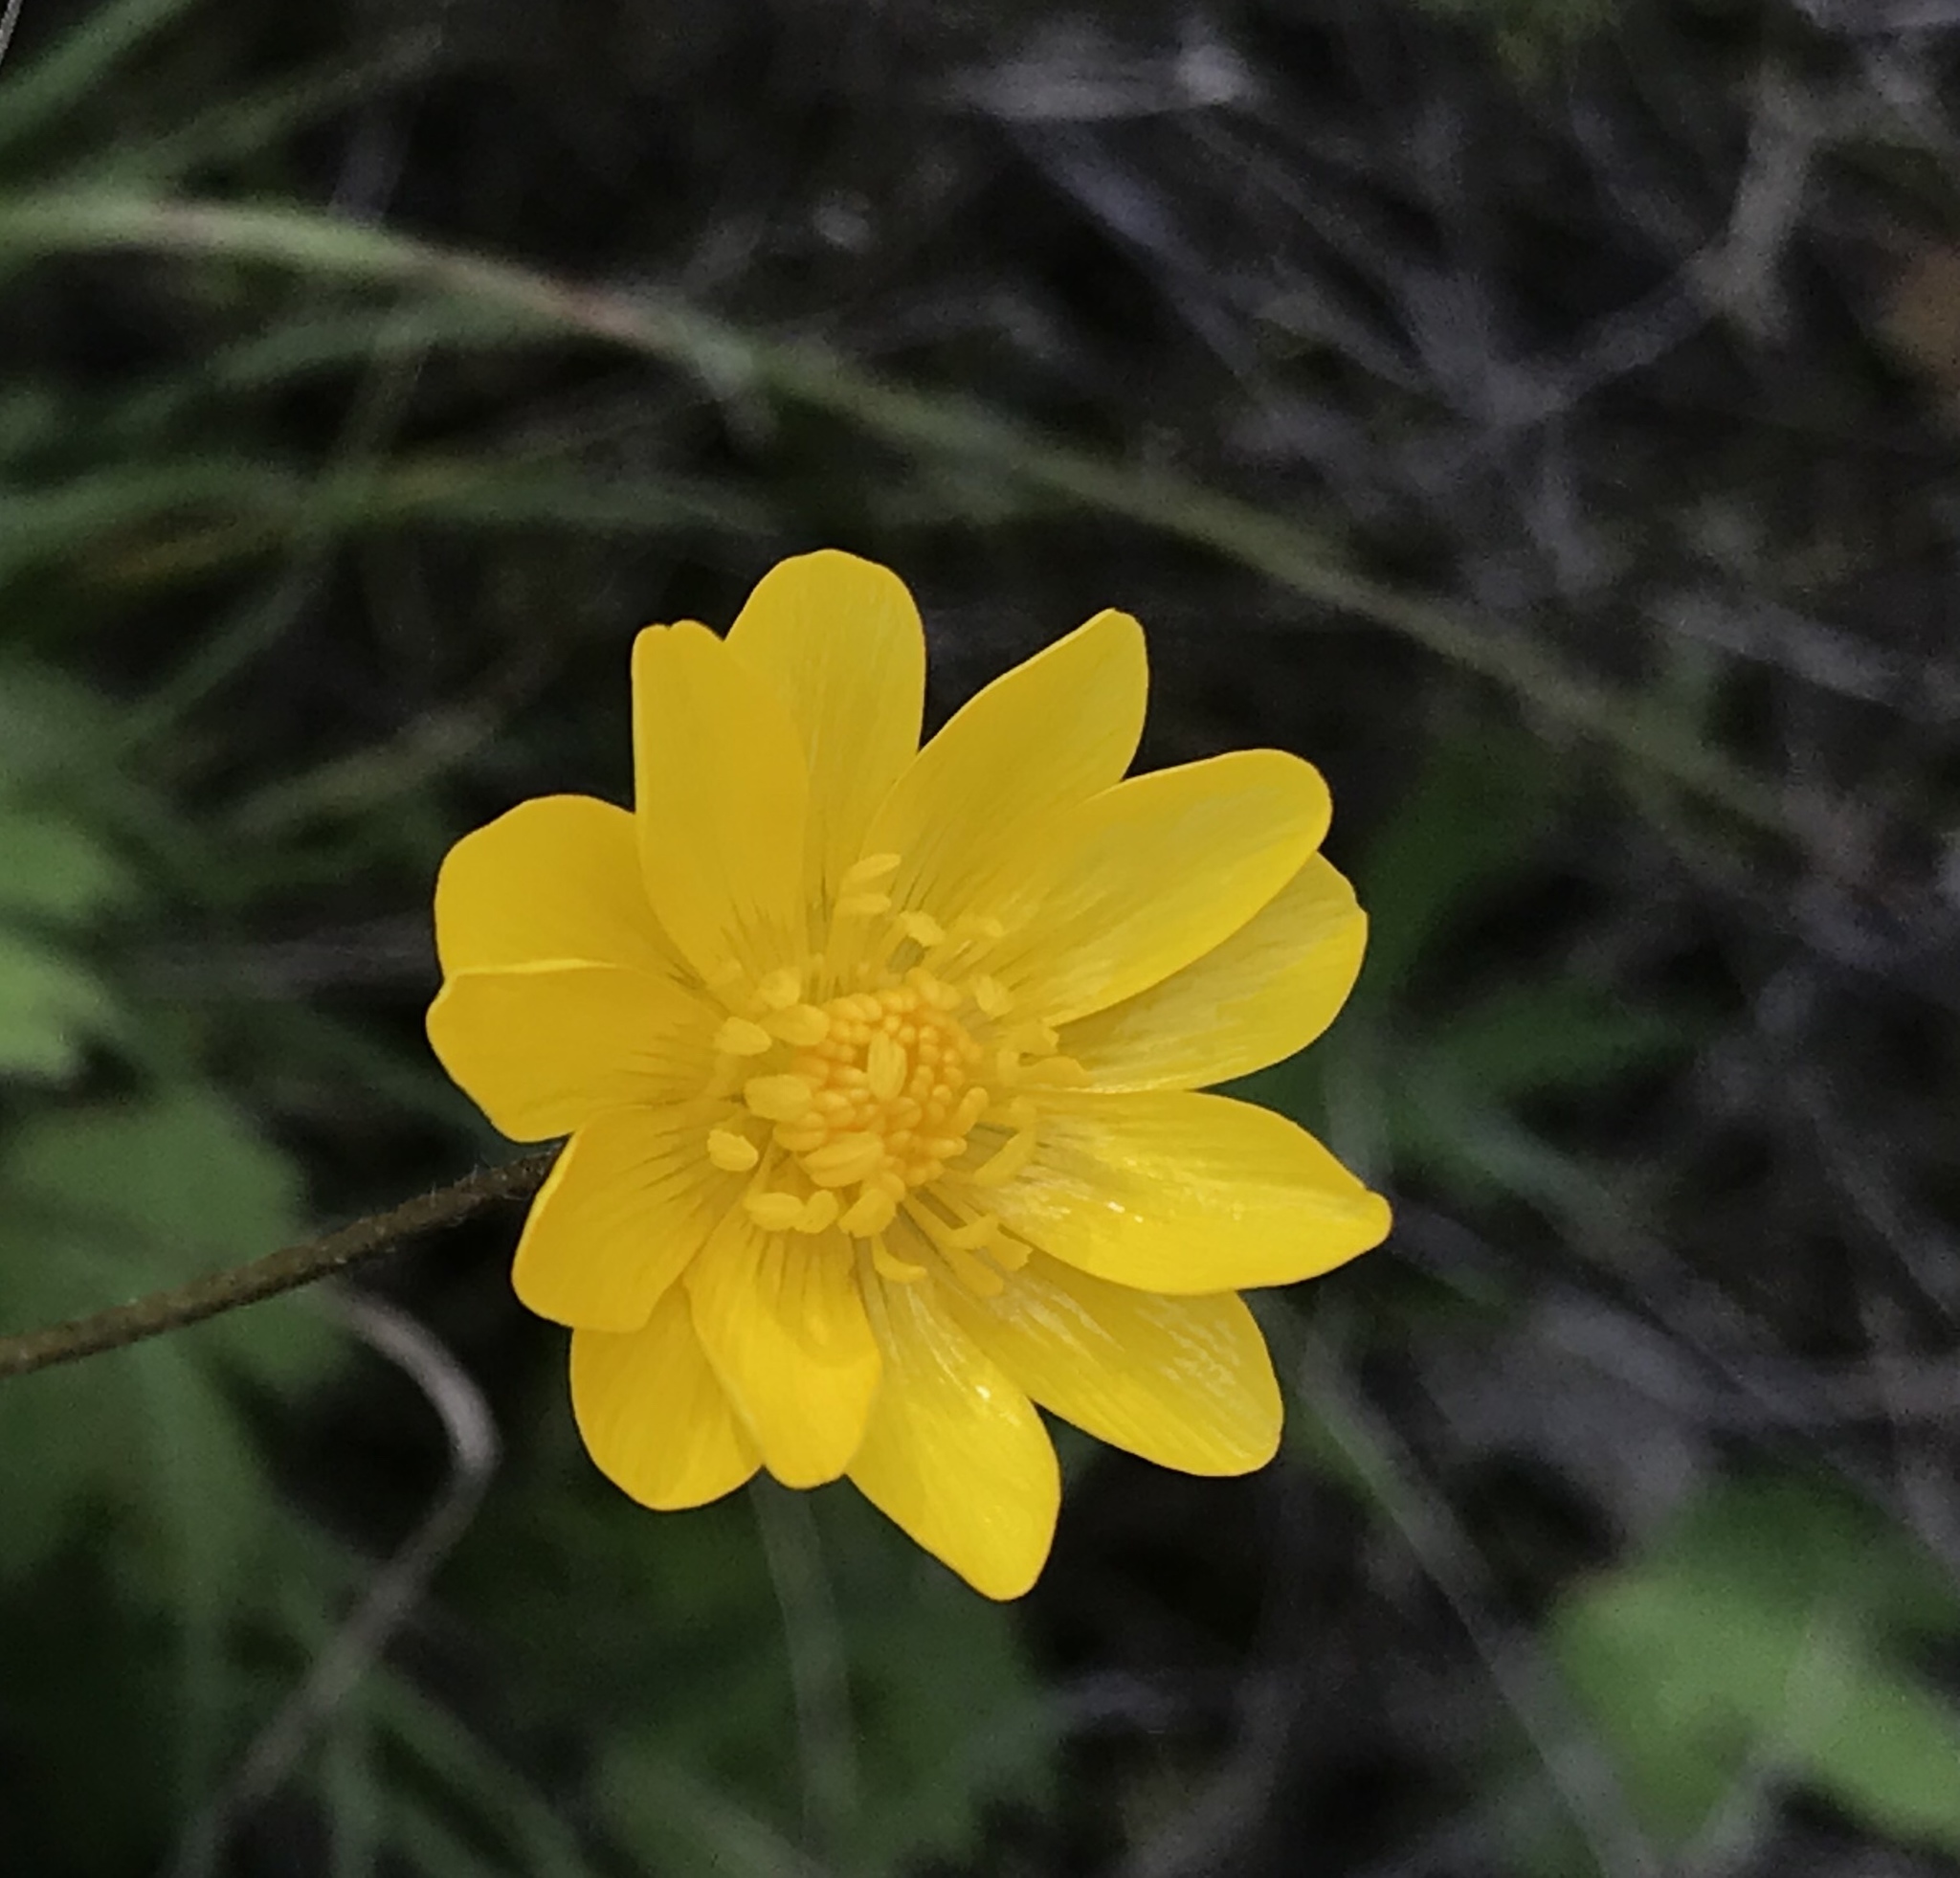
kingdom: Plantae
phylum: Tracheophyta
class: Magnoliopsida
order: Ranunculales
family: Ranunculaceae
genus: Ranunculus
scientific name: Ranunculus californicus
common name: California buttercup
